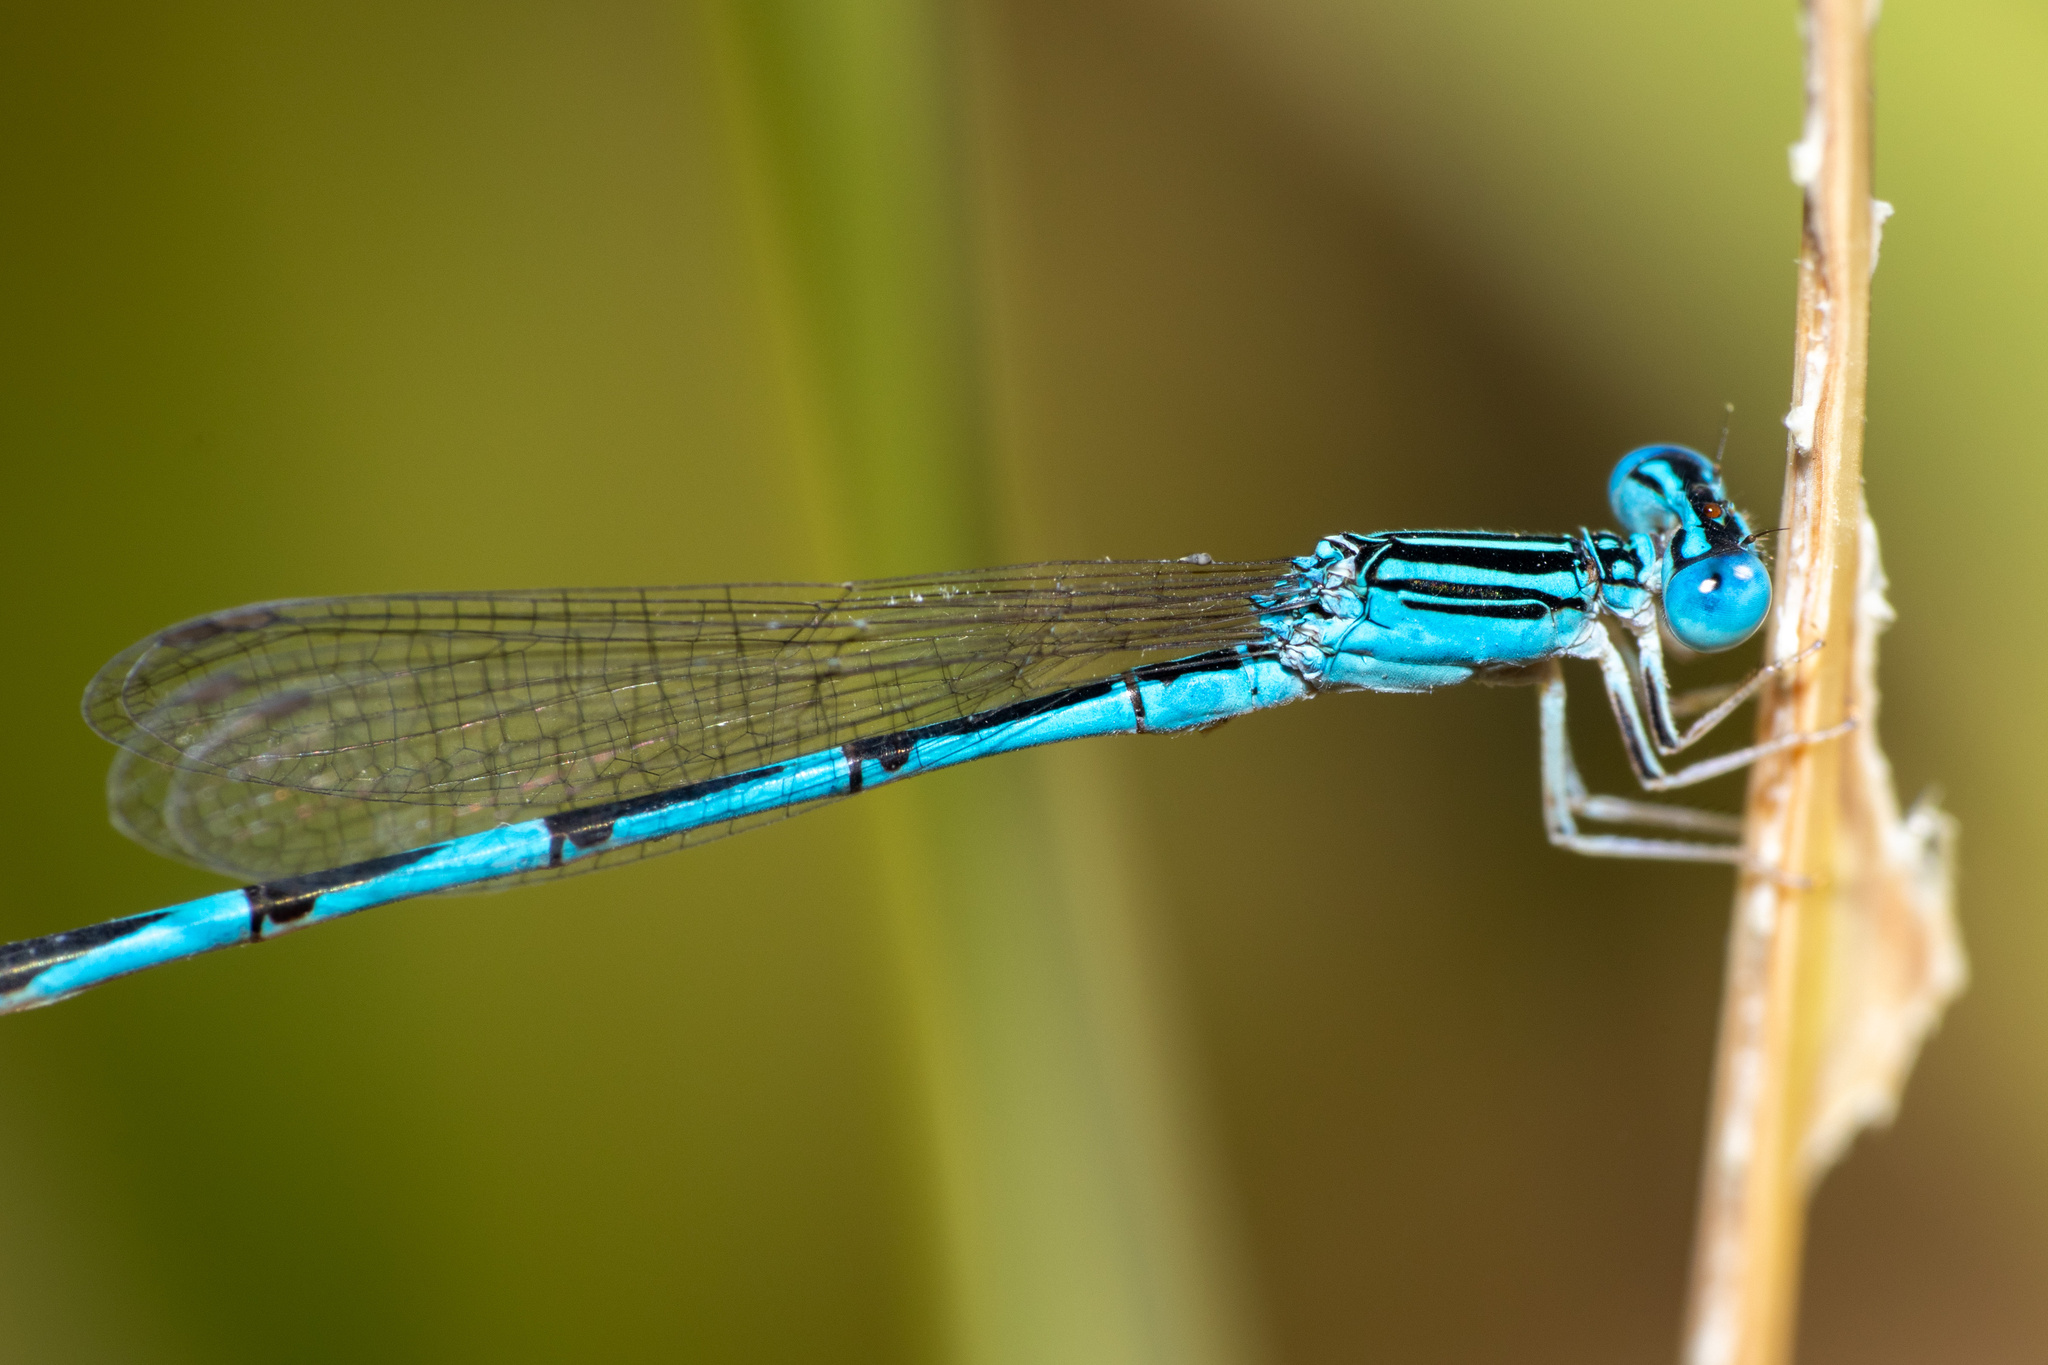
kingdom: Animalia
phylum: Arthropoda
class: Insecta
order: Odonata
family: Coenagrionidae
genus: Enallagma
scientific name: Enallagma basidens
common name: Double-striped bluet
